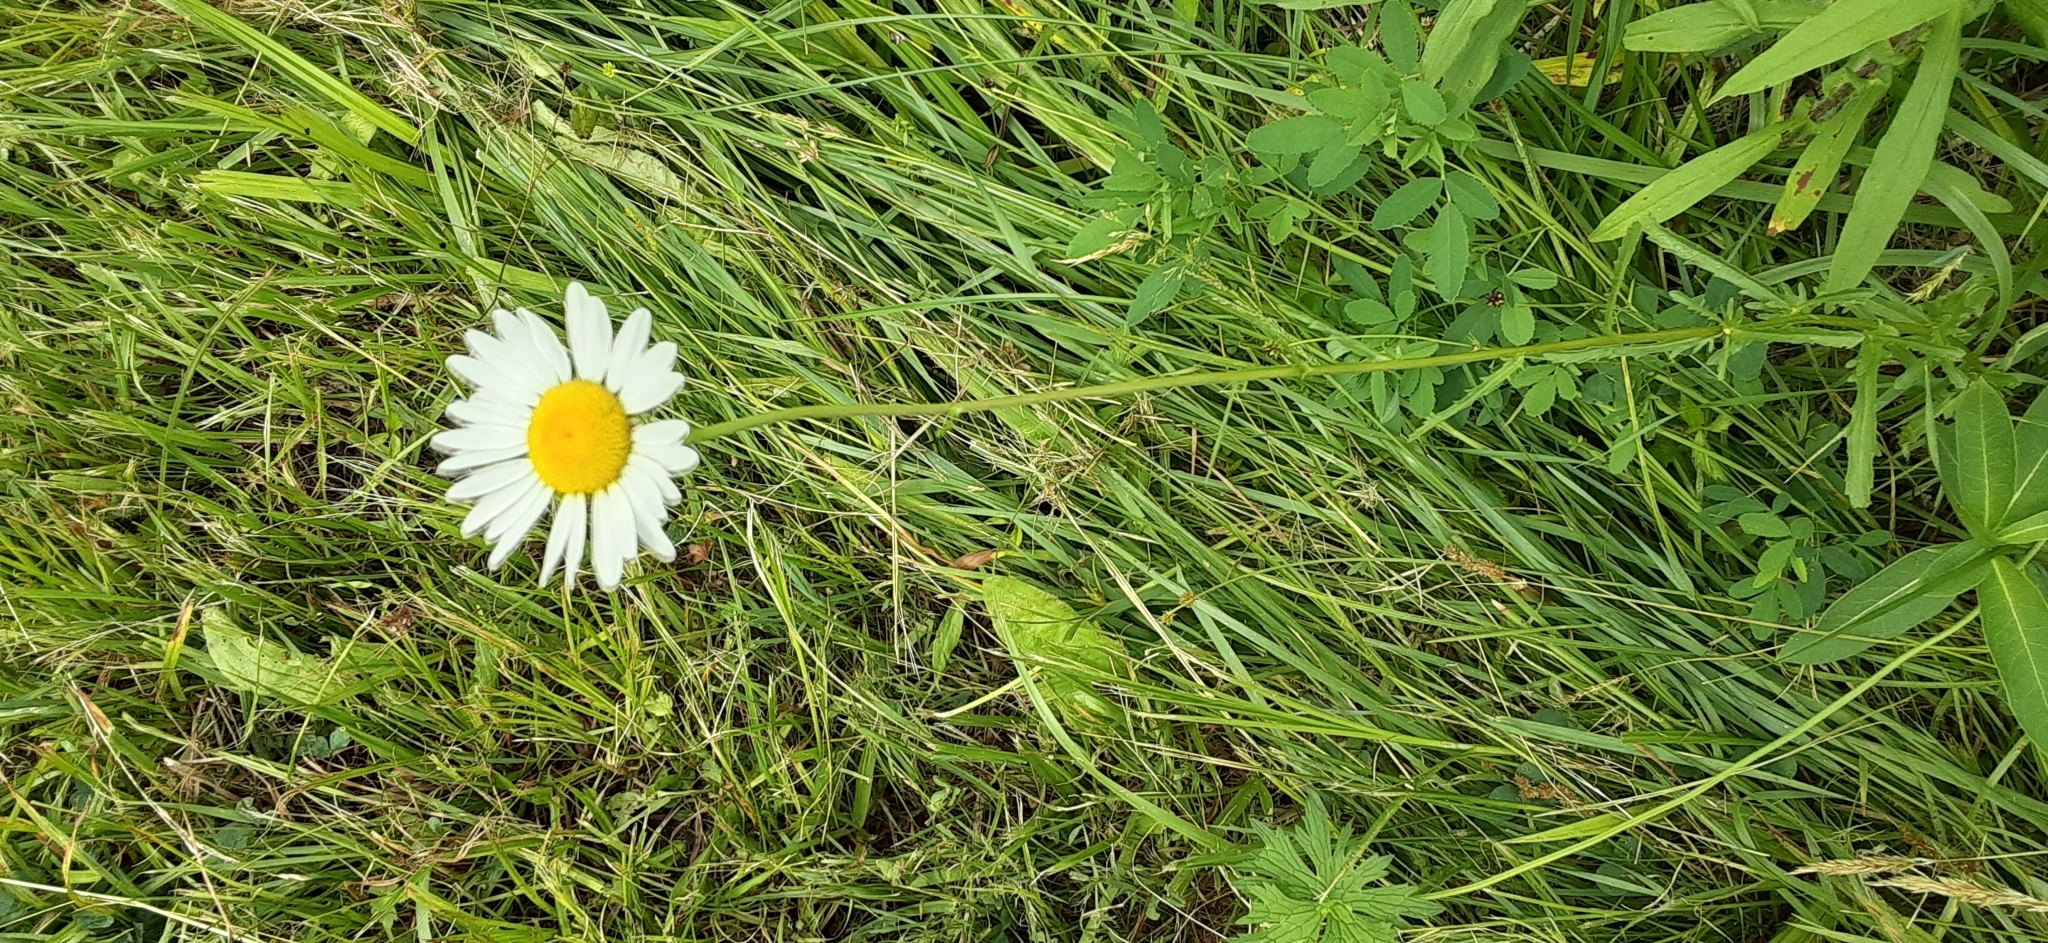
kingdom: Plantae
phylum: Tracheophyta
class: Magnoliopsida
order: Asterales
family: Asteraceae
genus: Leucanthemum
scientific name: Leucanthemum vulgare
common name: Oxeye daisy
